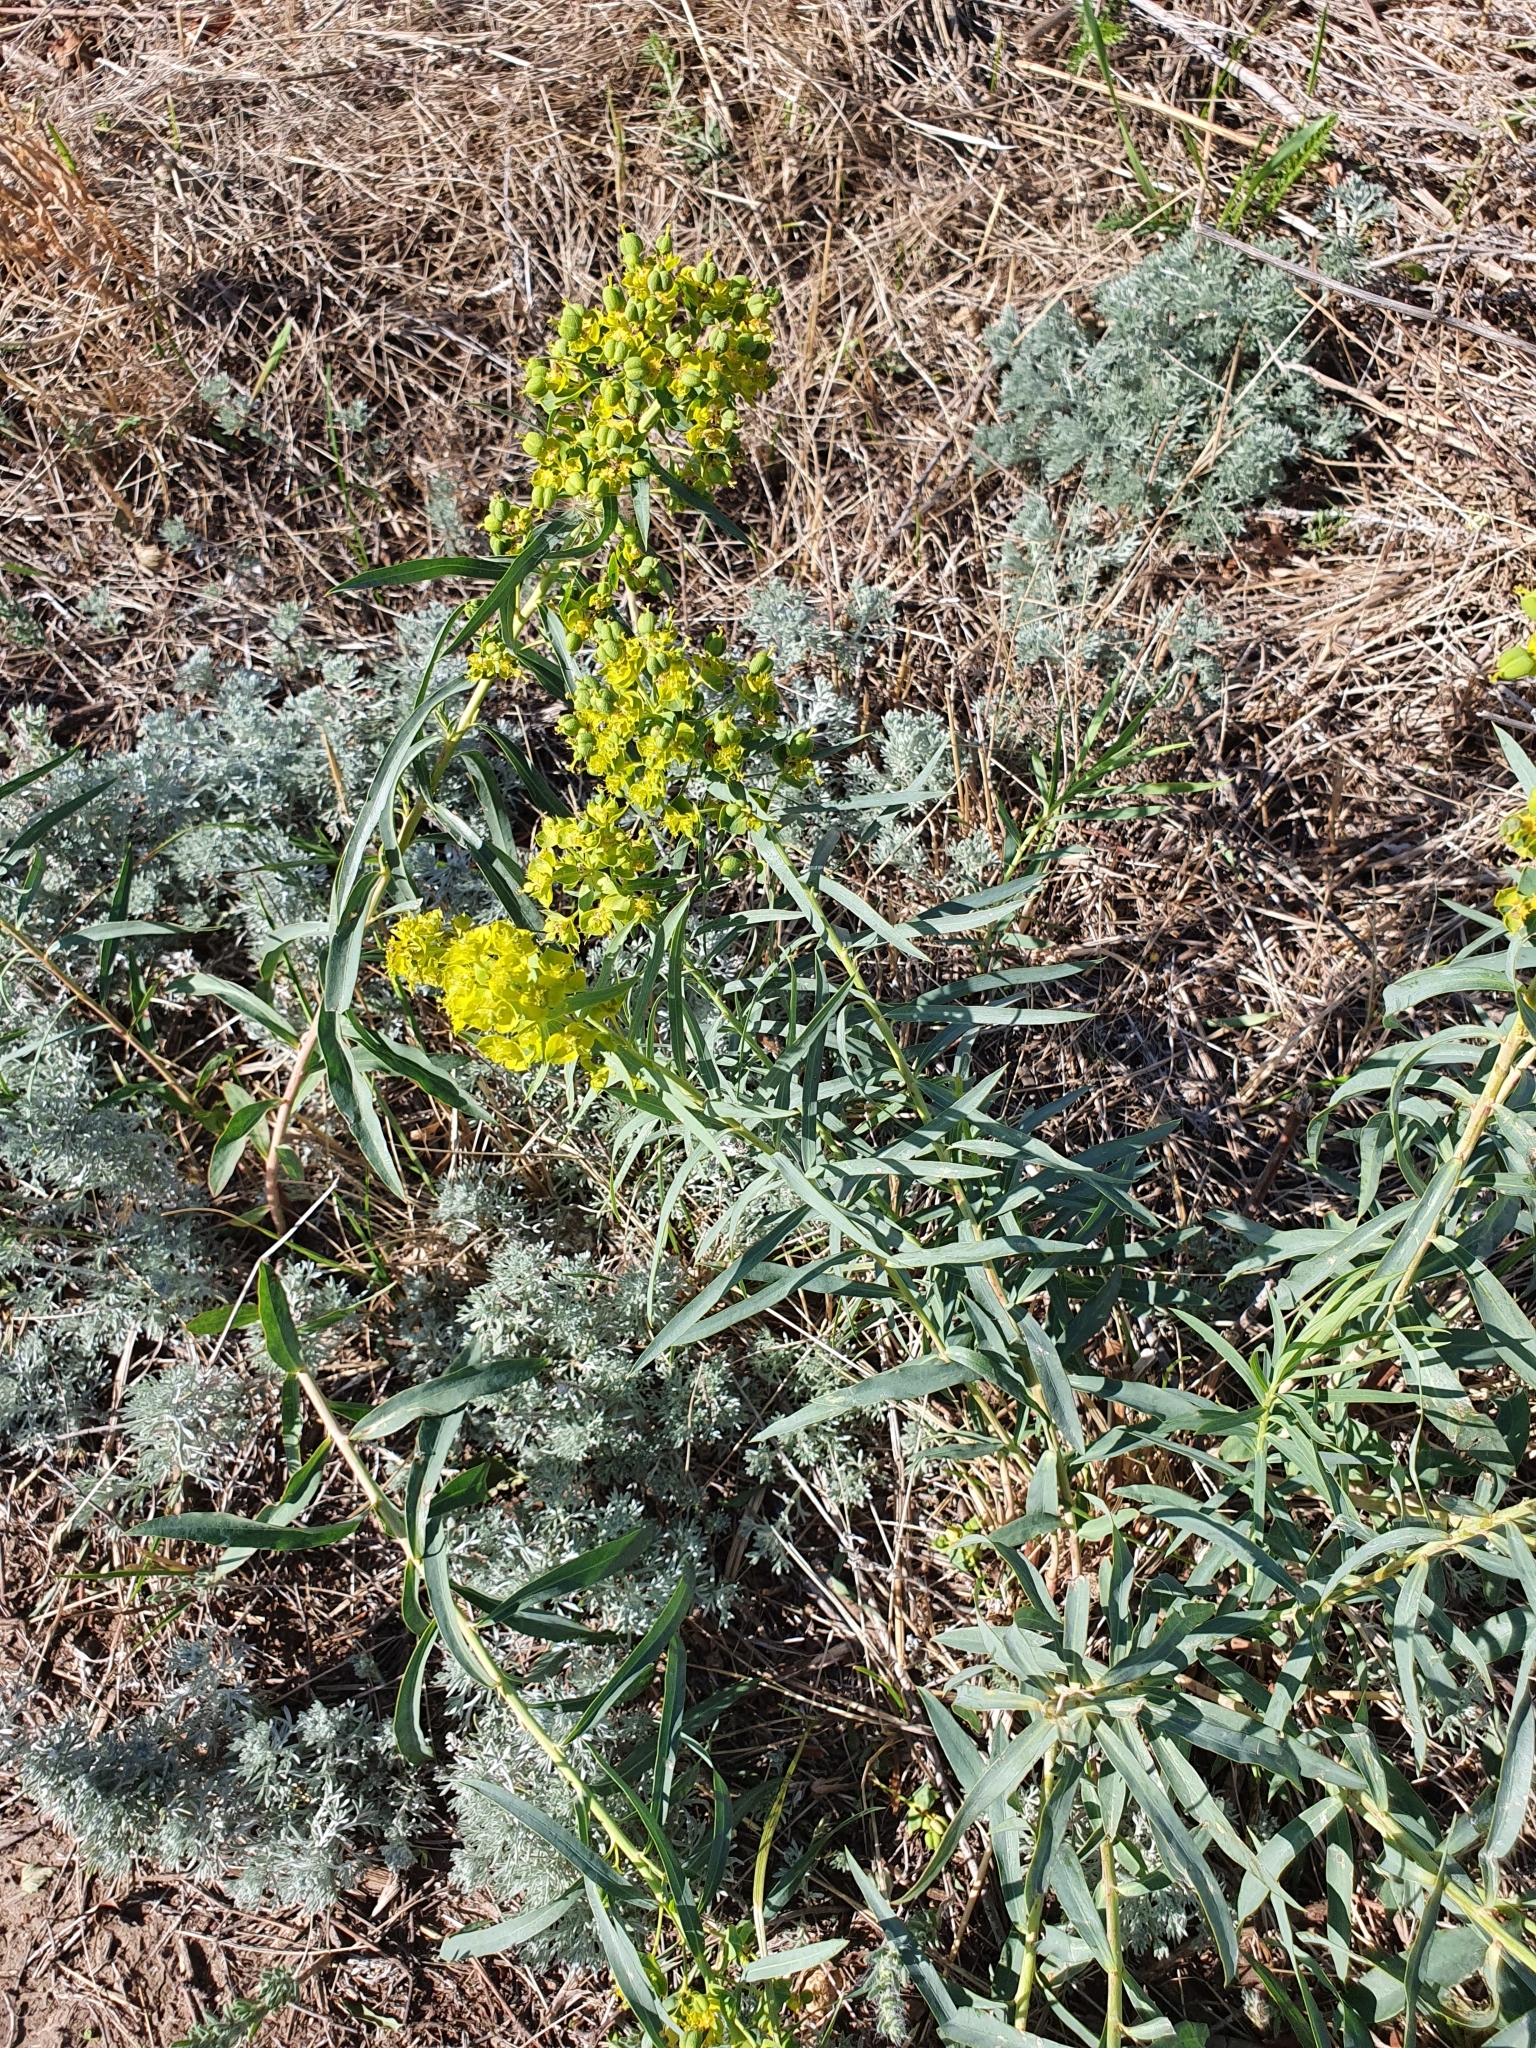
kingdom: Plantae
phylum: Tracheophyta
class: Magnoliopsida
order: Malpighiales
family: Euphorbiaceae
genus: Euphorbia
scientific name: Euphorbia virgata
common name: Leafy spurge
